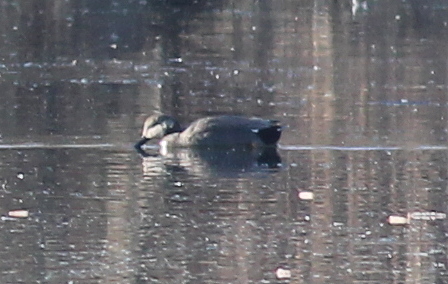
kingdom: Animalia
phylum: Chordata
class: Aves
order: Anseriformes
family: Anatidae
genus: Mareca
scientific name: Mareca strepera
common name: Gadwall
